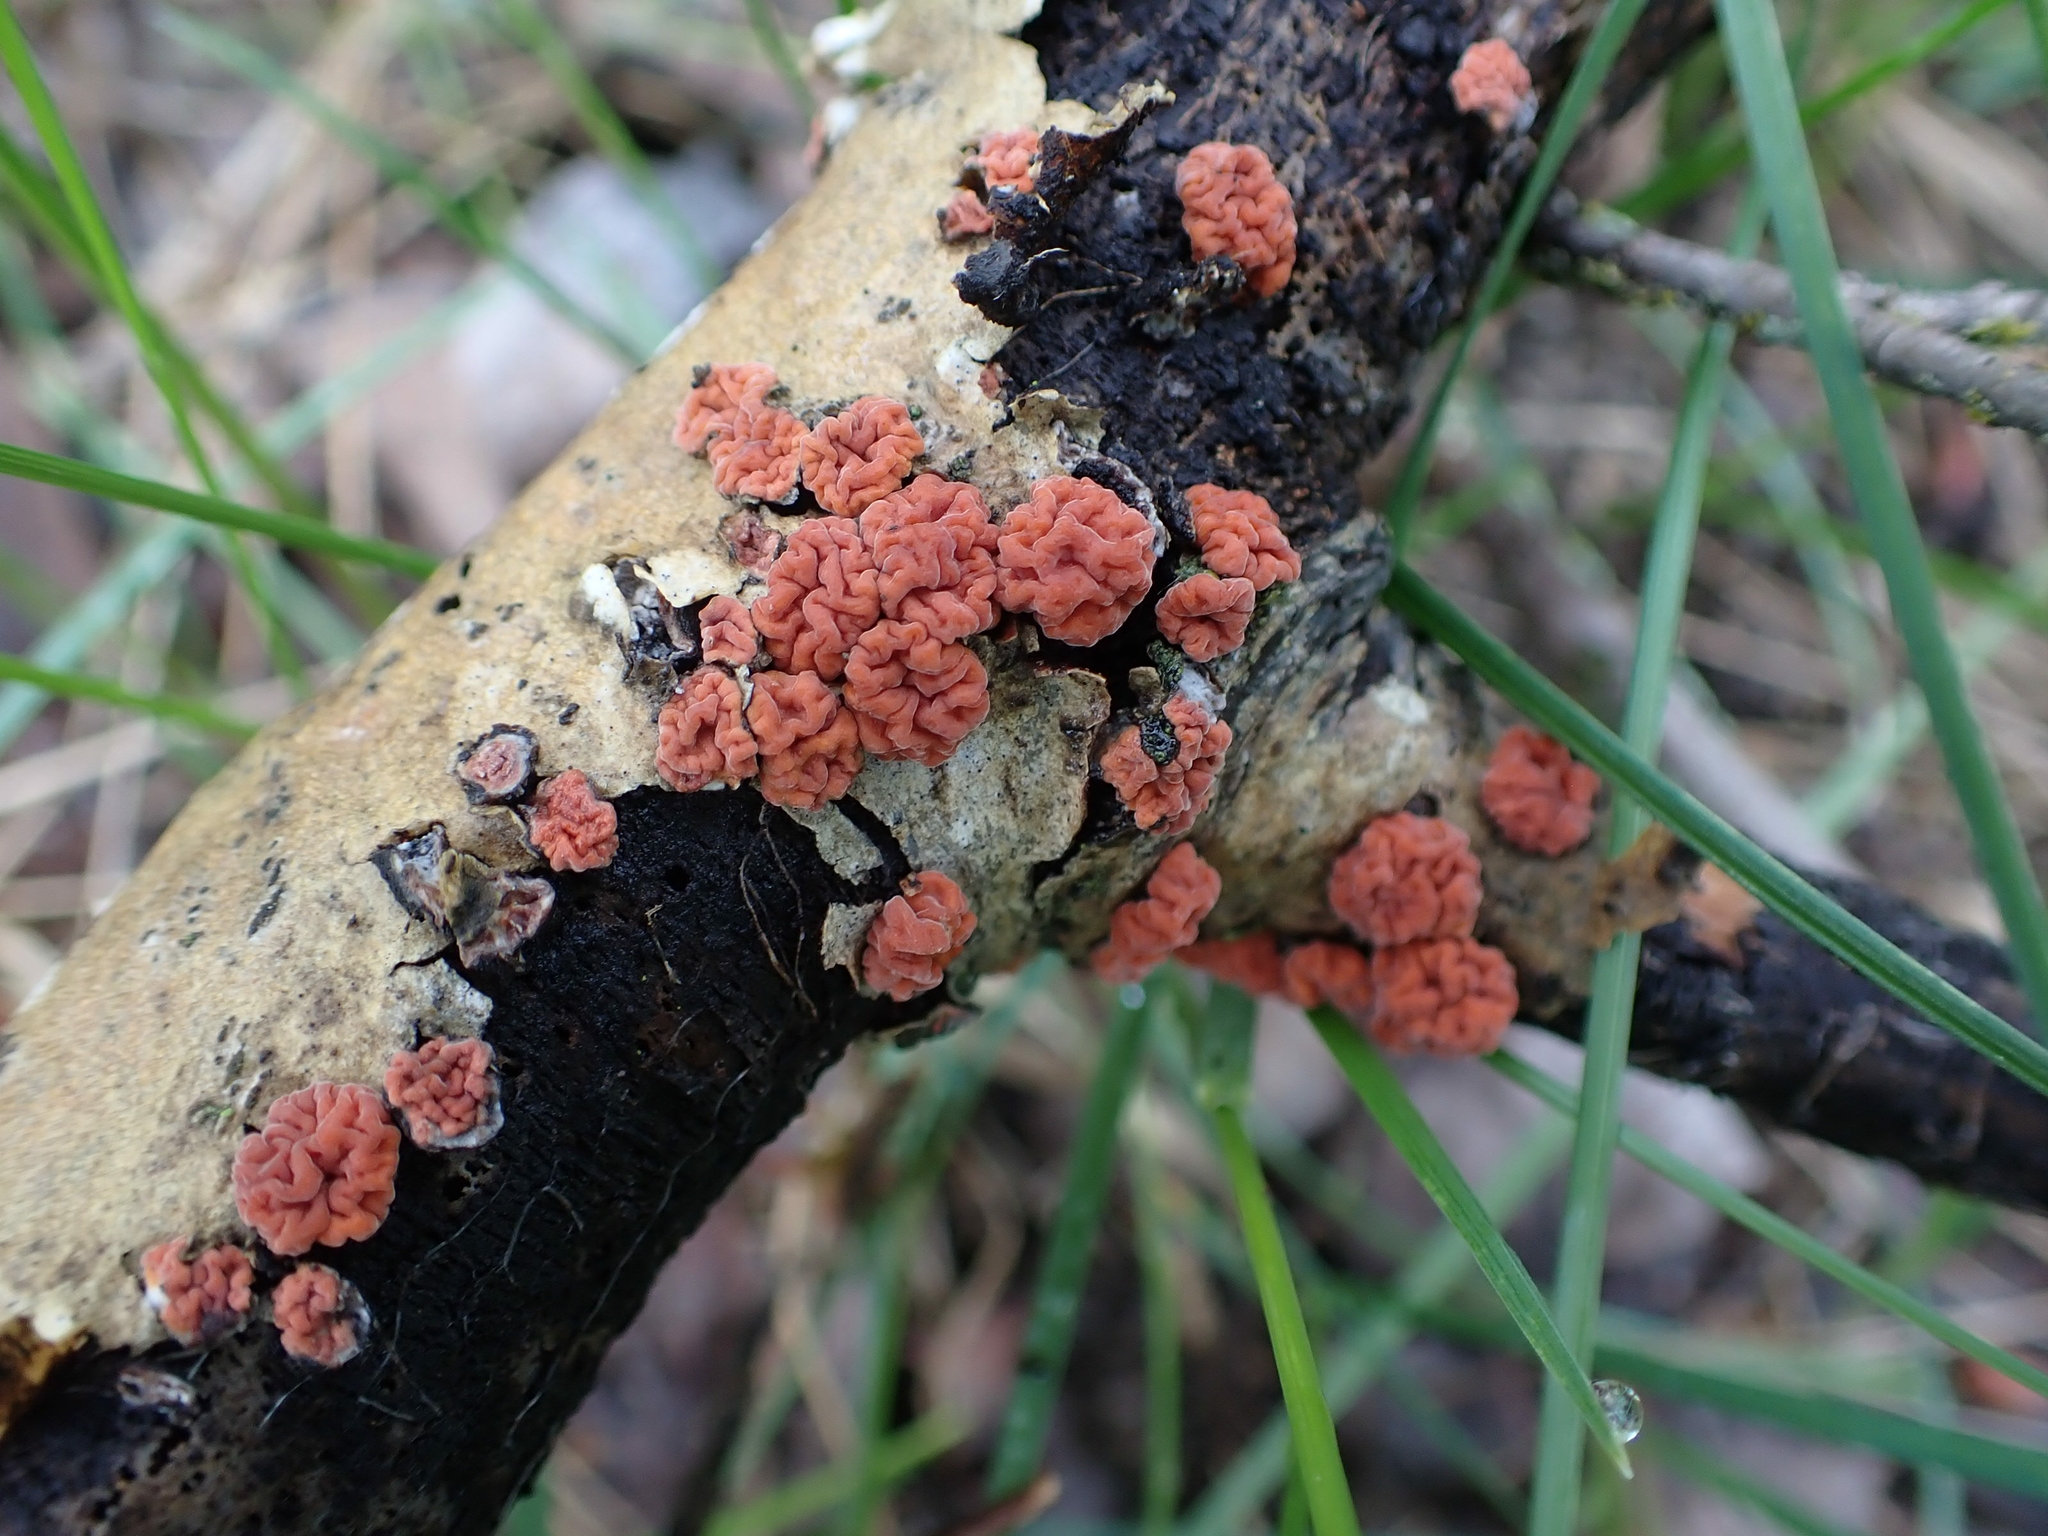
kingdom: Fungi
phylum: Basidiomycota
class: Agaricomycetes
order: Russulales
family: Peniophoraceae
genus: Peniophora
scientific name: Peniophora rufa
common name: Red tree brain fungus
